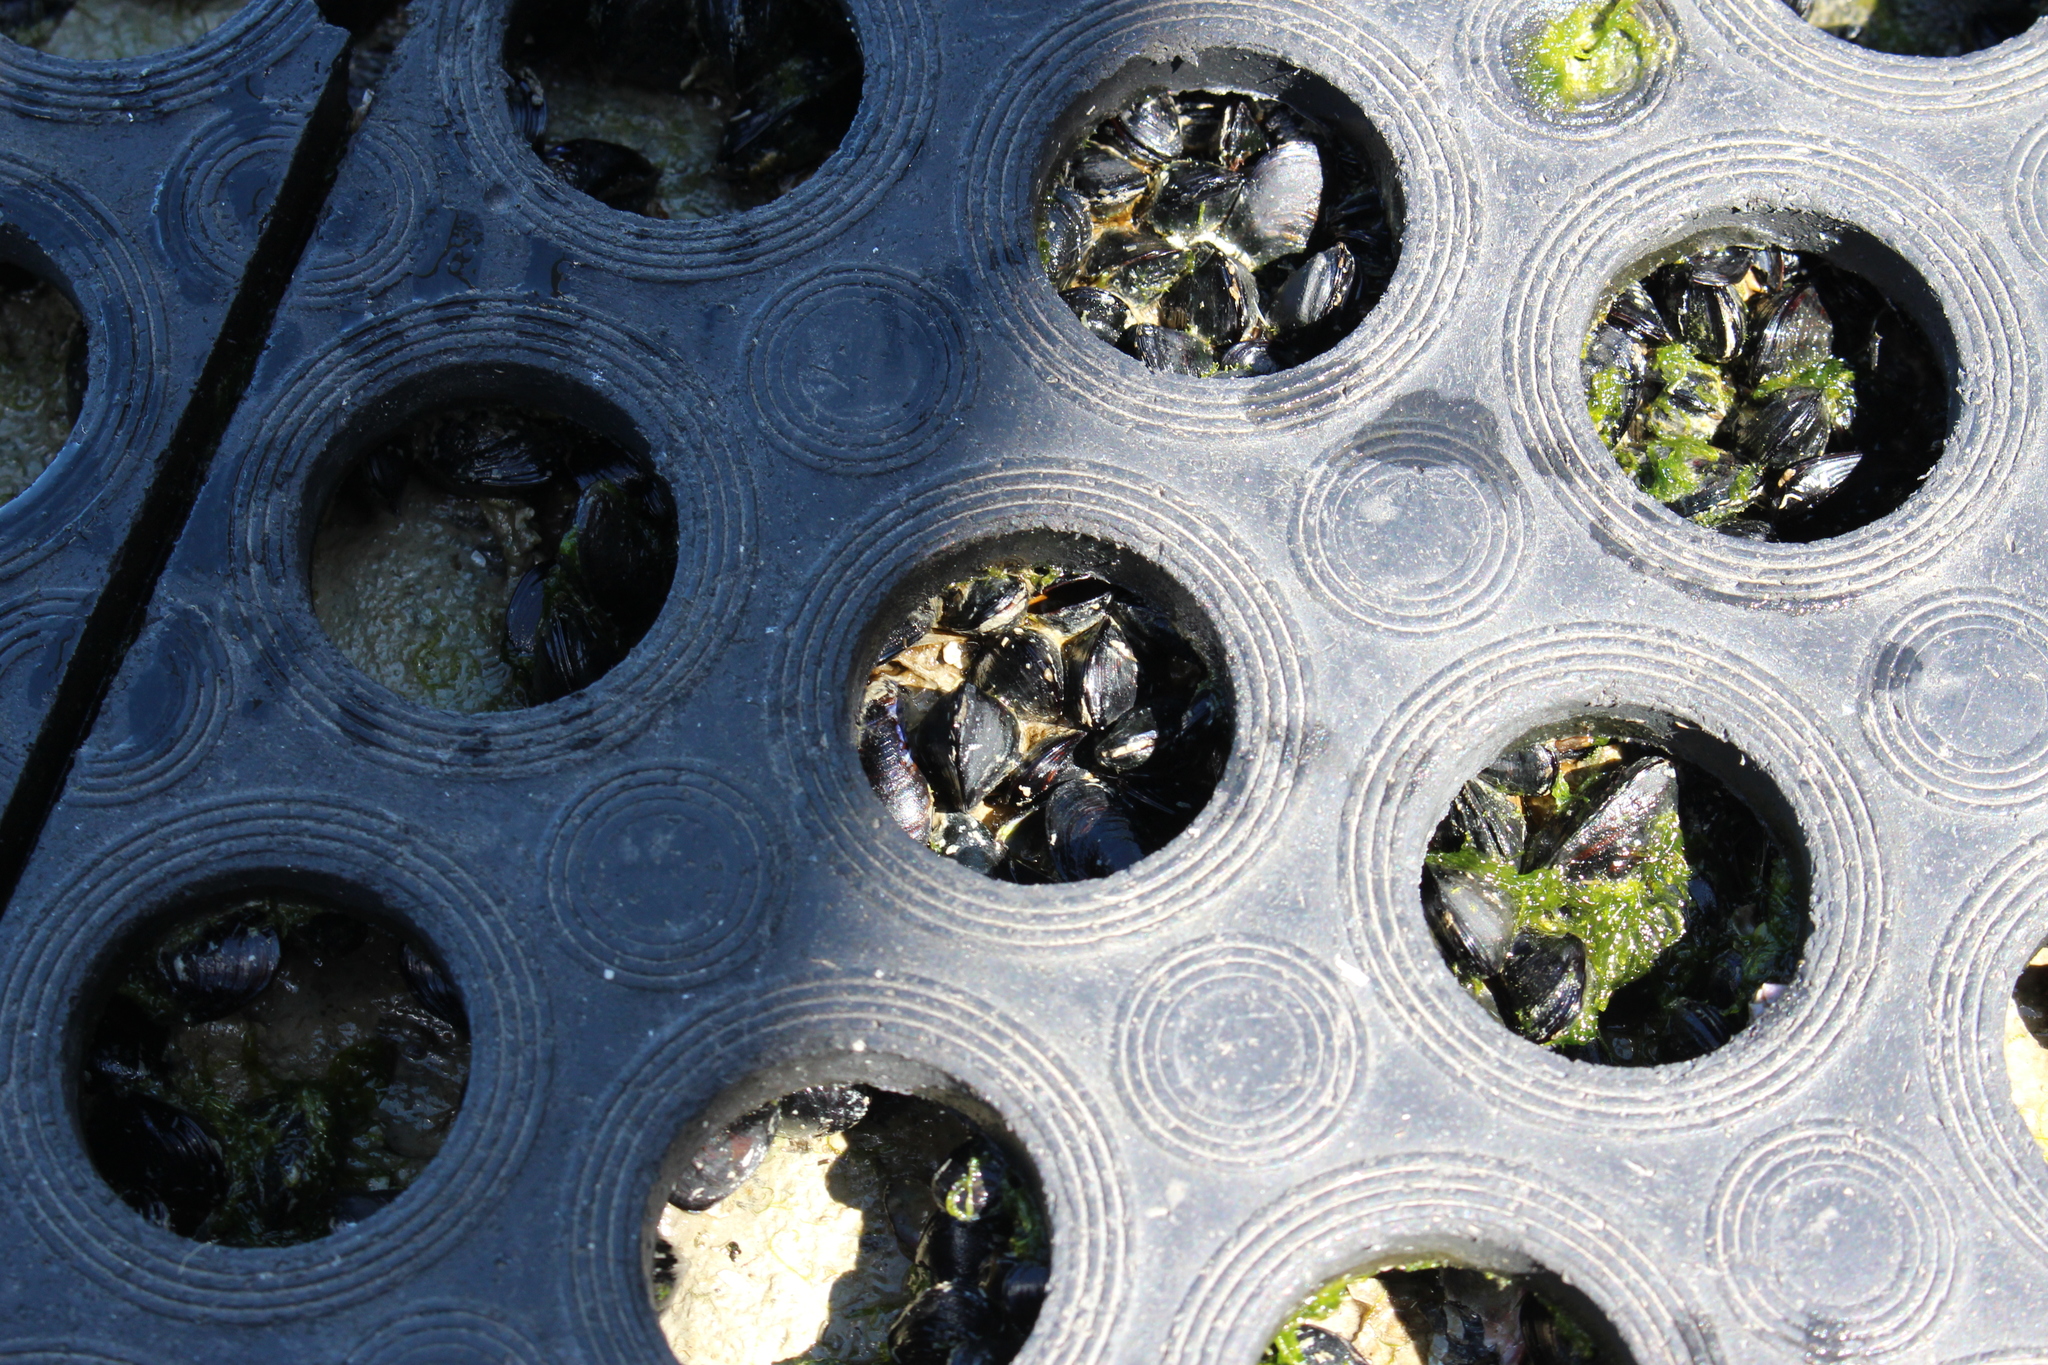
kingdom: Animalia
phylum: Mollusca
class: Bivalvia
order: Mytilida
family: Mytilidae
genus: Xenostrobus
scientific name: Xenostrobus neozelanicus
